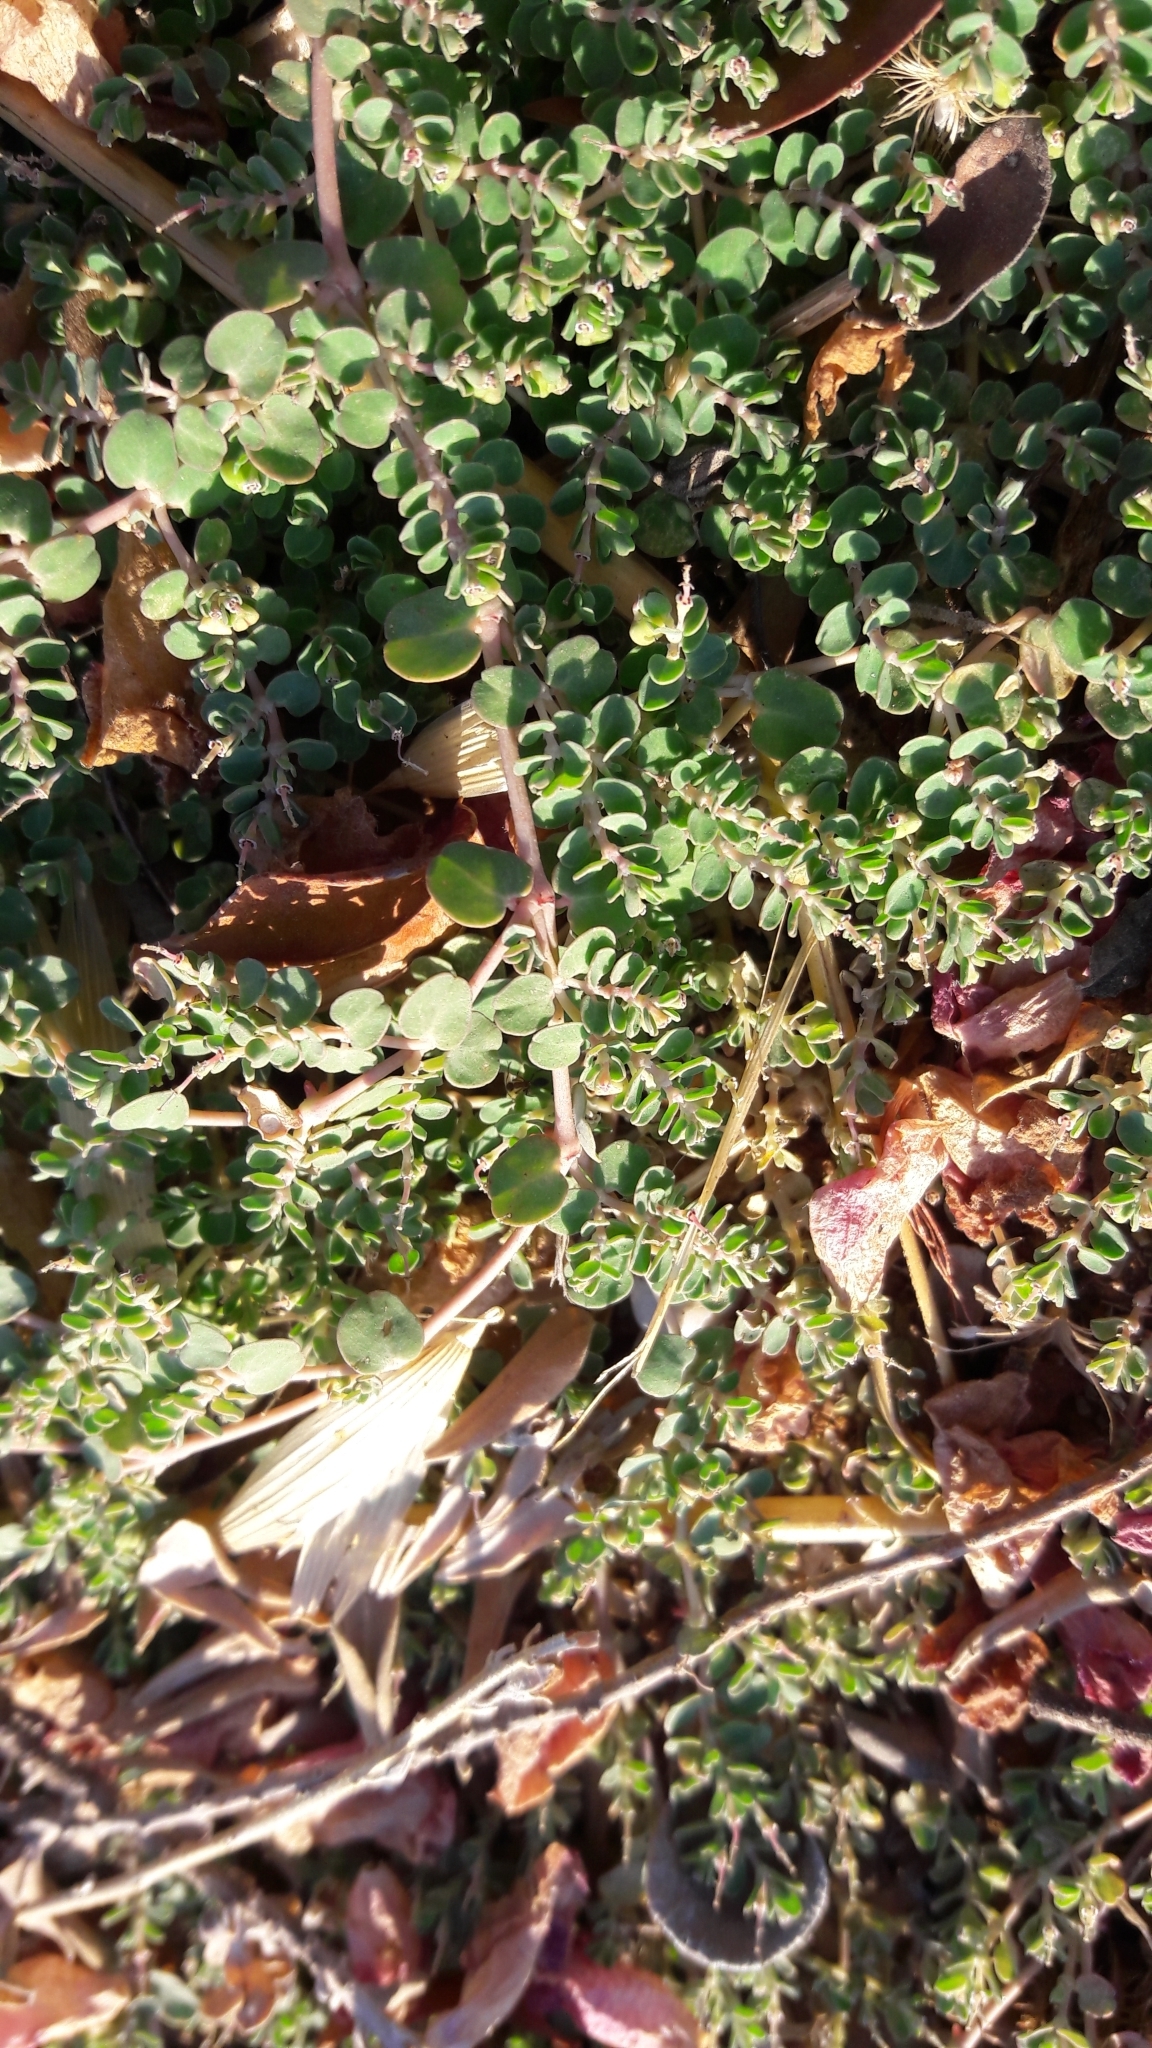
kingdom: Plantae
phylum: Tracheophyta
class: Magnoliopsida
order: Malpighiales
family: Euphorbiaceae
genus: Euphorbia
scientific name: Euphorbia serpens
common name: Matted sandmat
